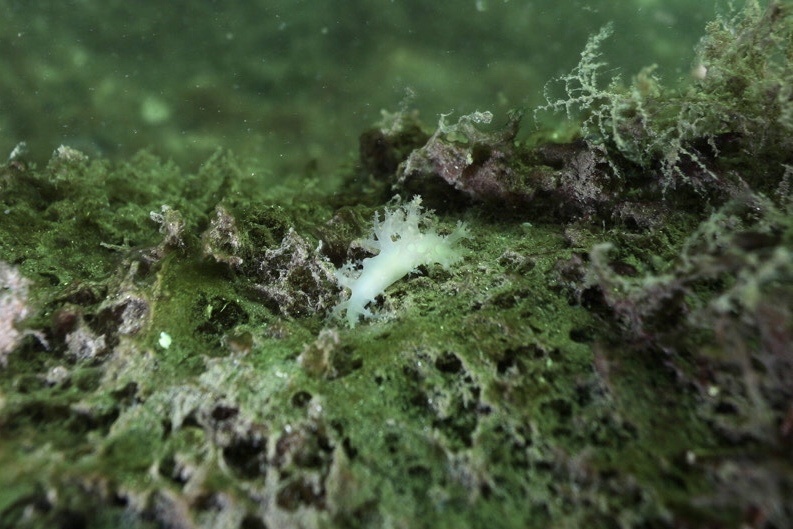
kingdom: Animalia
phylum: Mollusca
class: Gastropoda
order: Nudibranchia
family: Dendronotidae
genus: Dendronotus
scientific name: Dendronotus lacteus
